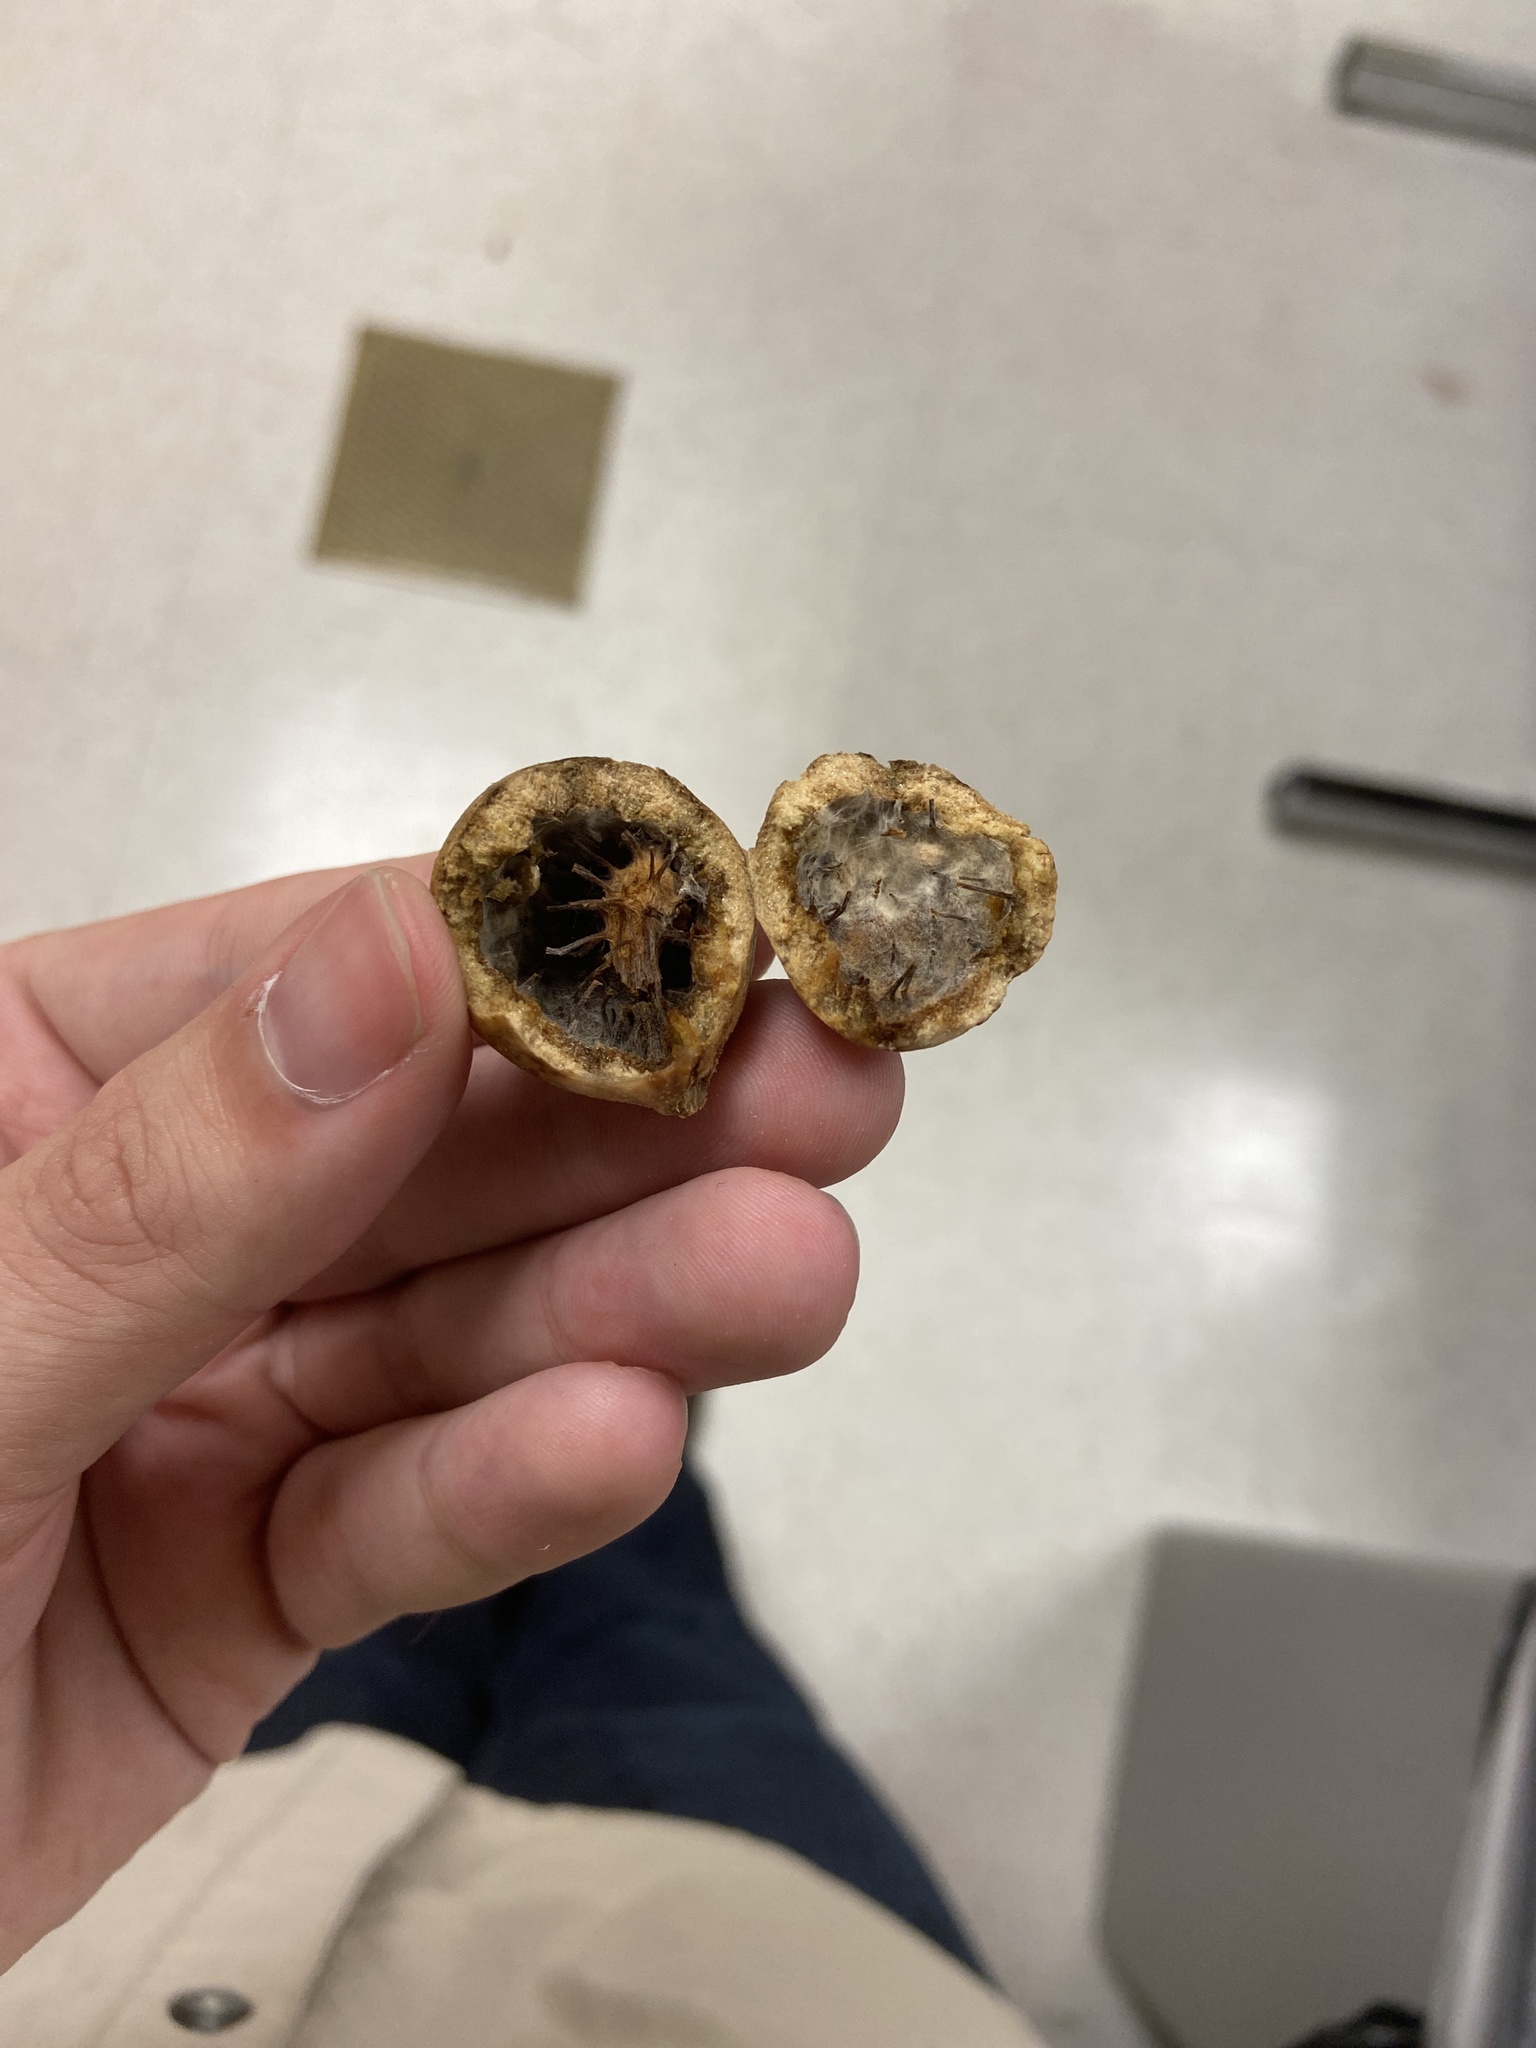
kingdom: Animalia
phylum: Arthropoda
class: Insecta
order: Hymenoptera
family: Cynipidae
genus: Amphibolips
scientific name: Amphibolips
